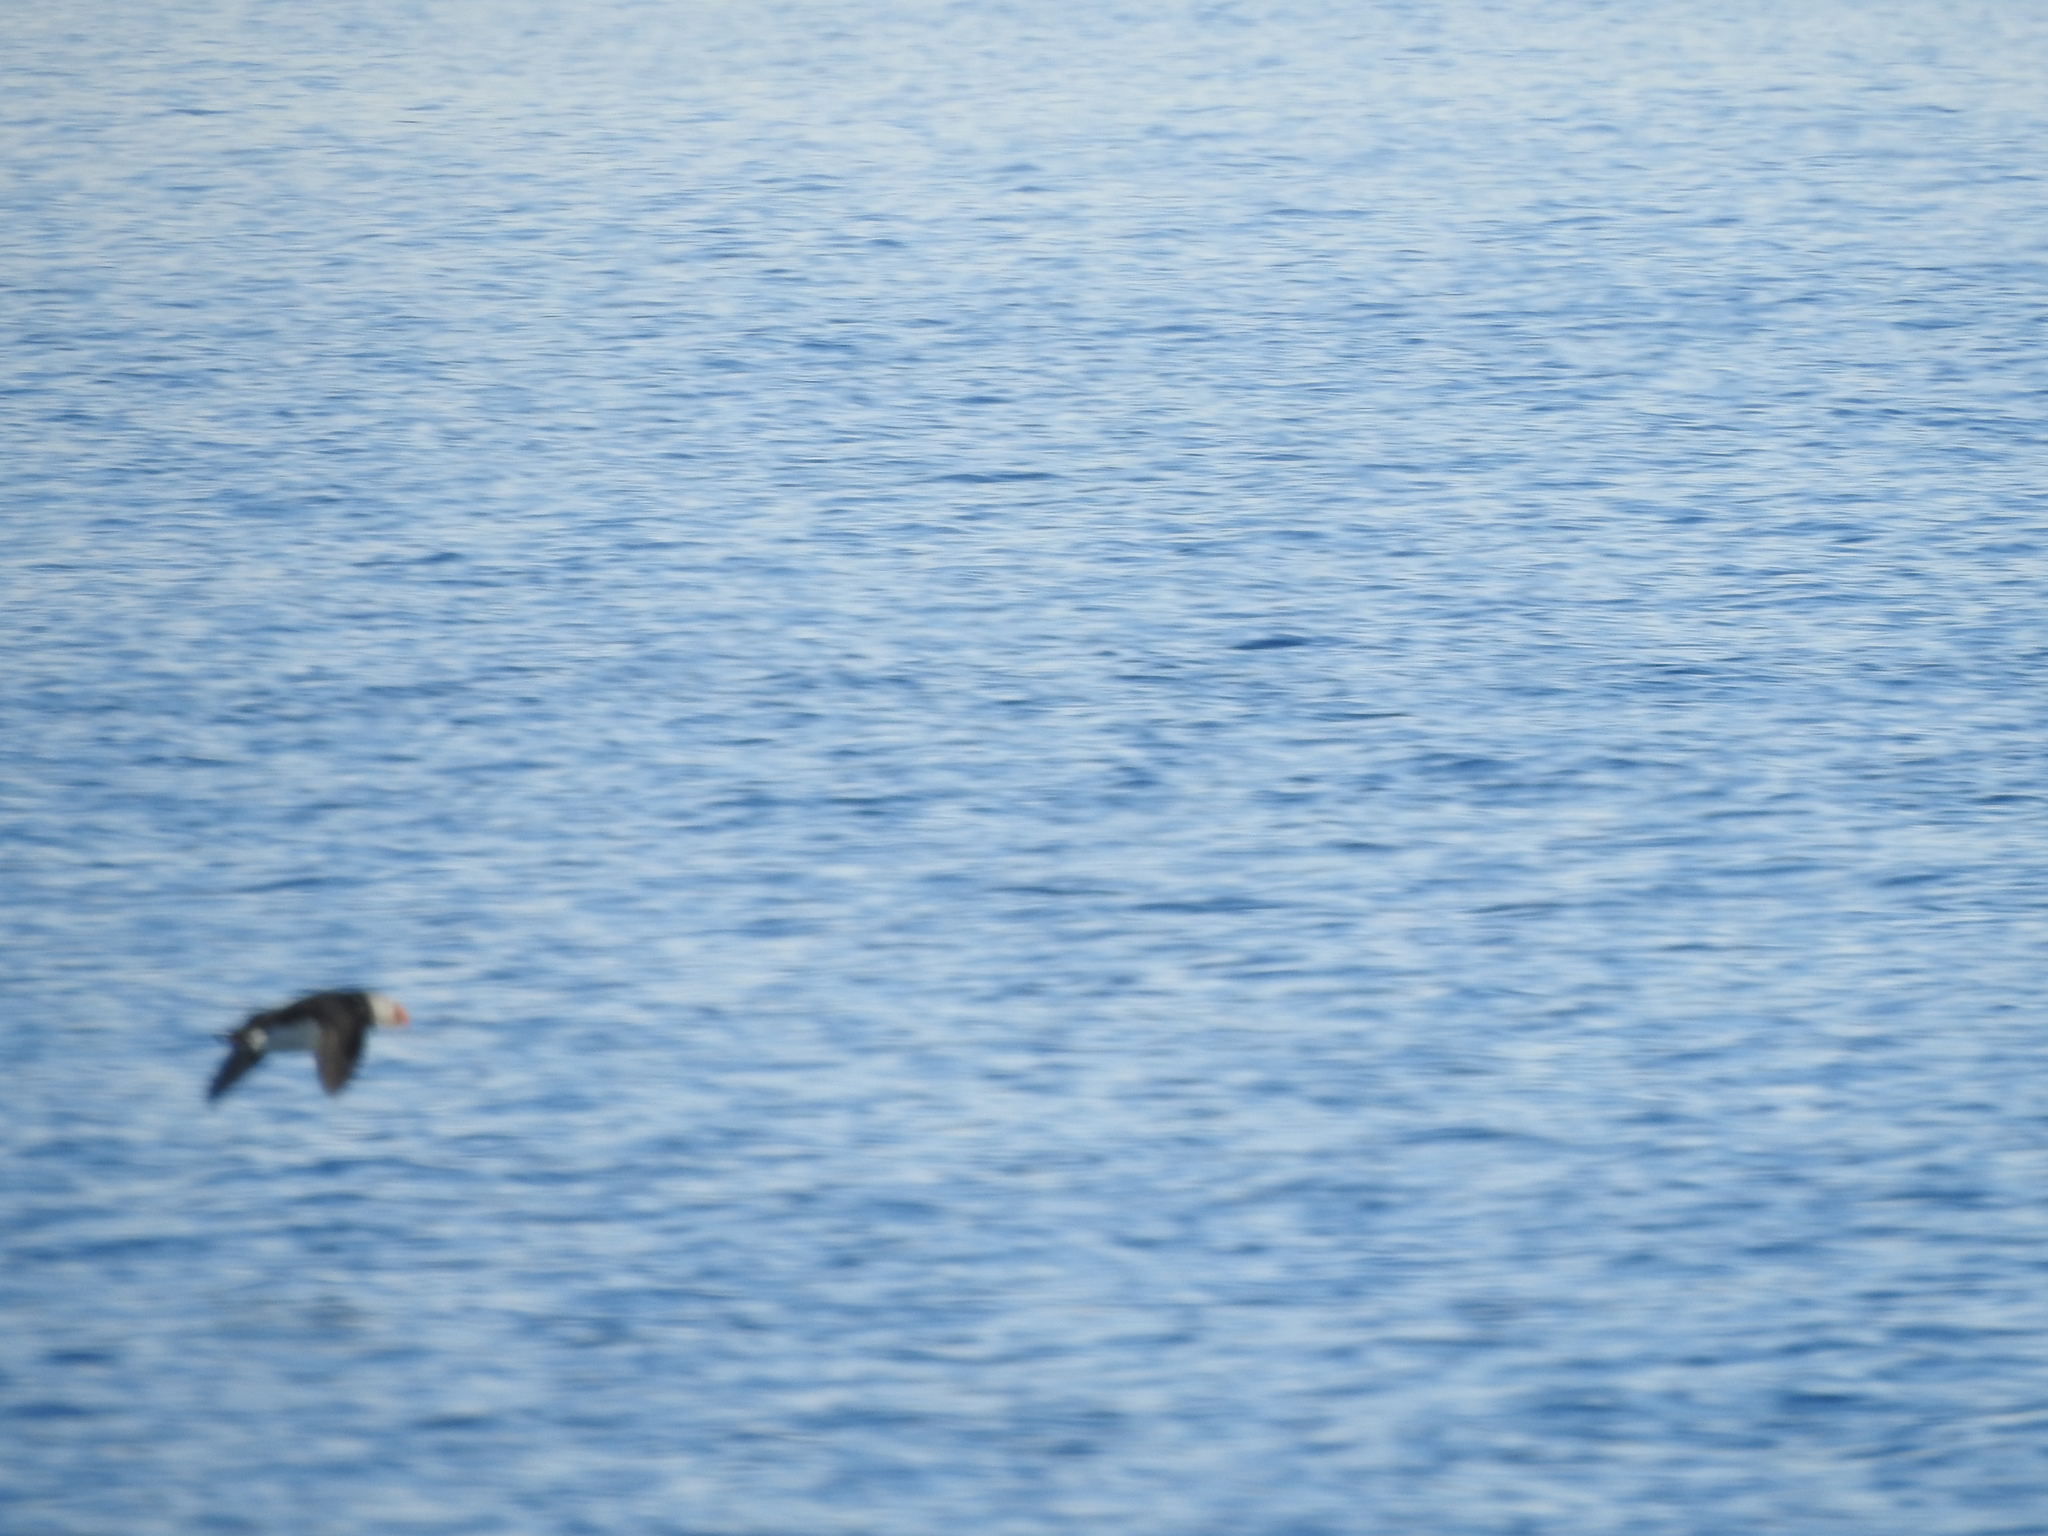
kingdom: Animalia
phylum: Chordata
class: Aves
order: Charadriiformes
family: Alcidae
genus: Fratercula
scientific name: Fratercula arctica
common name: Atlantic puffin
